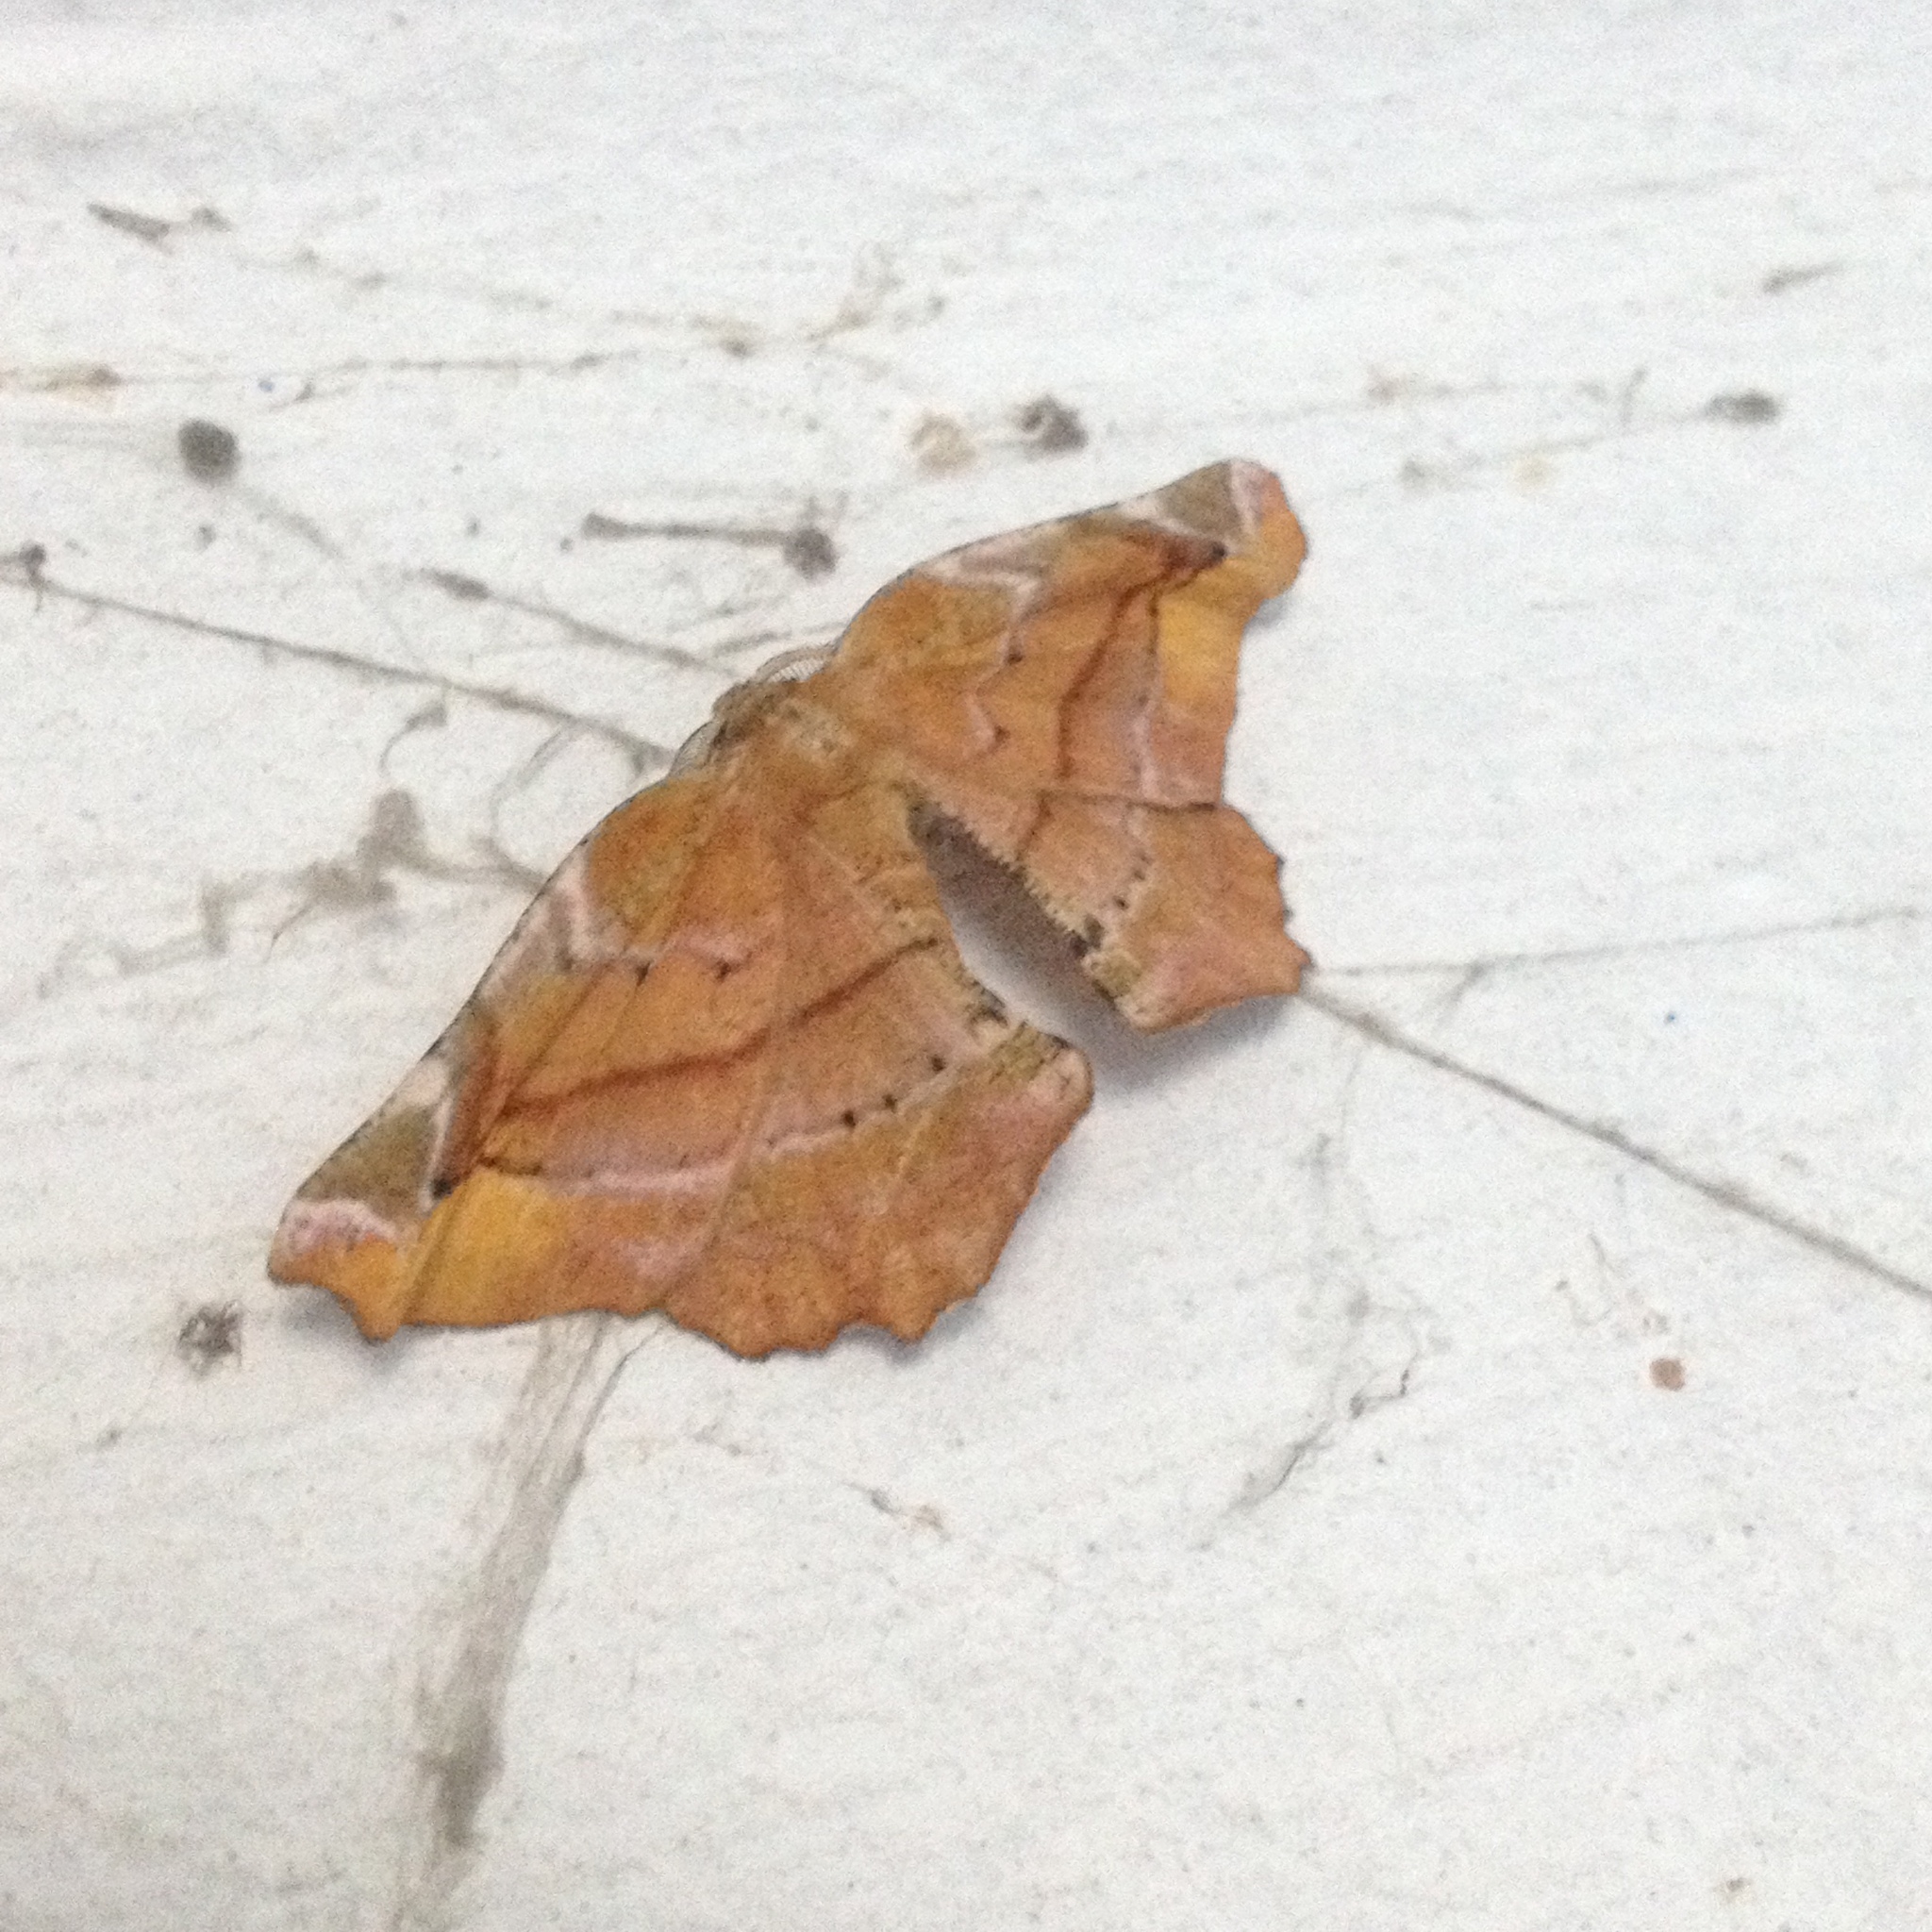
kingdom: Animalia
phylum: Arthropoda
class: Insecta
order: Lepidoptera
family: Geometridae
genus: Apeira
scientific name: Apeira syringaria
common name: Lilac beauty
